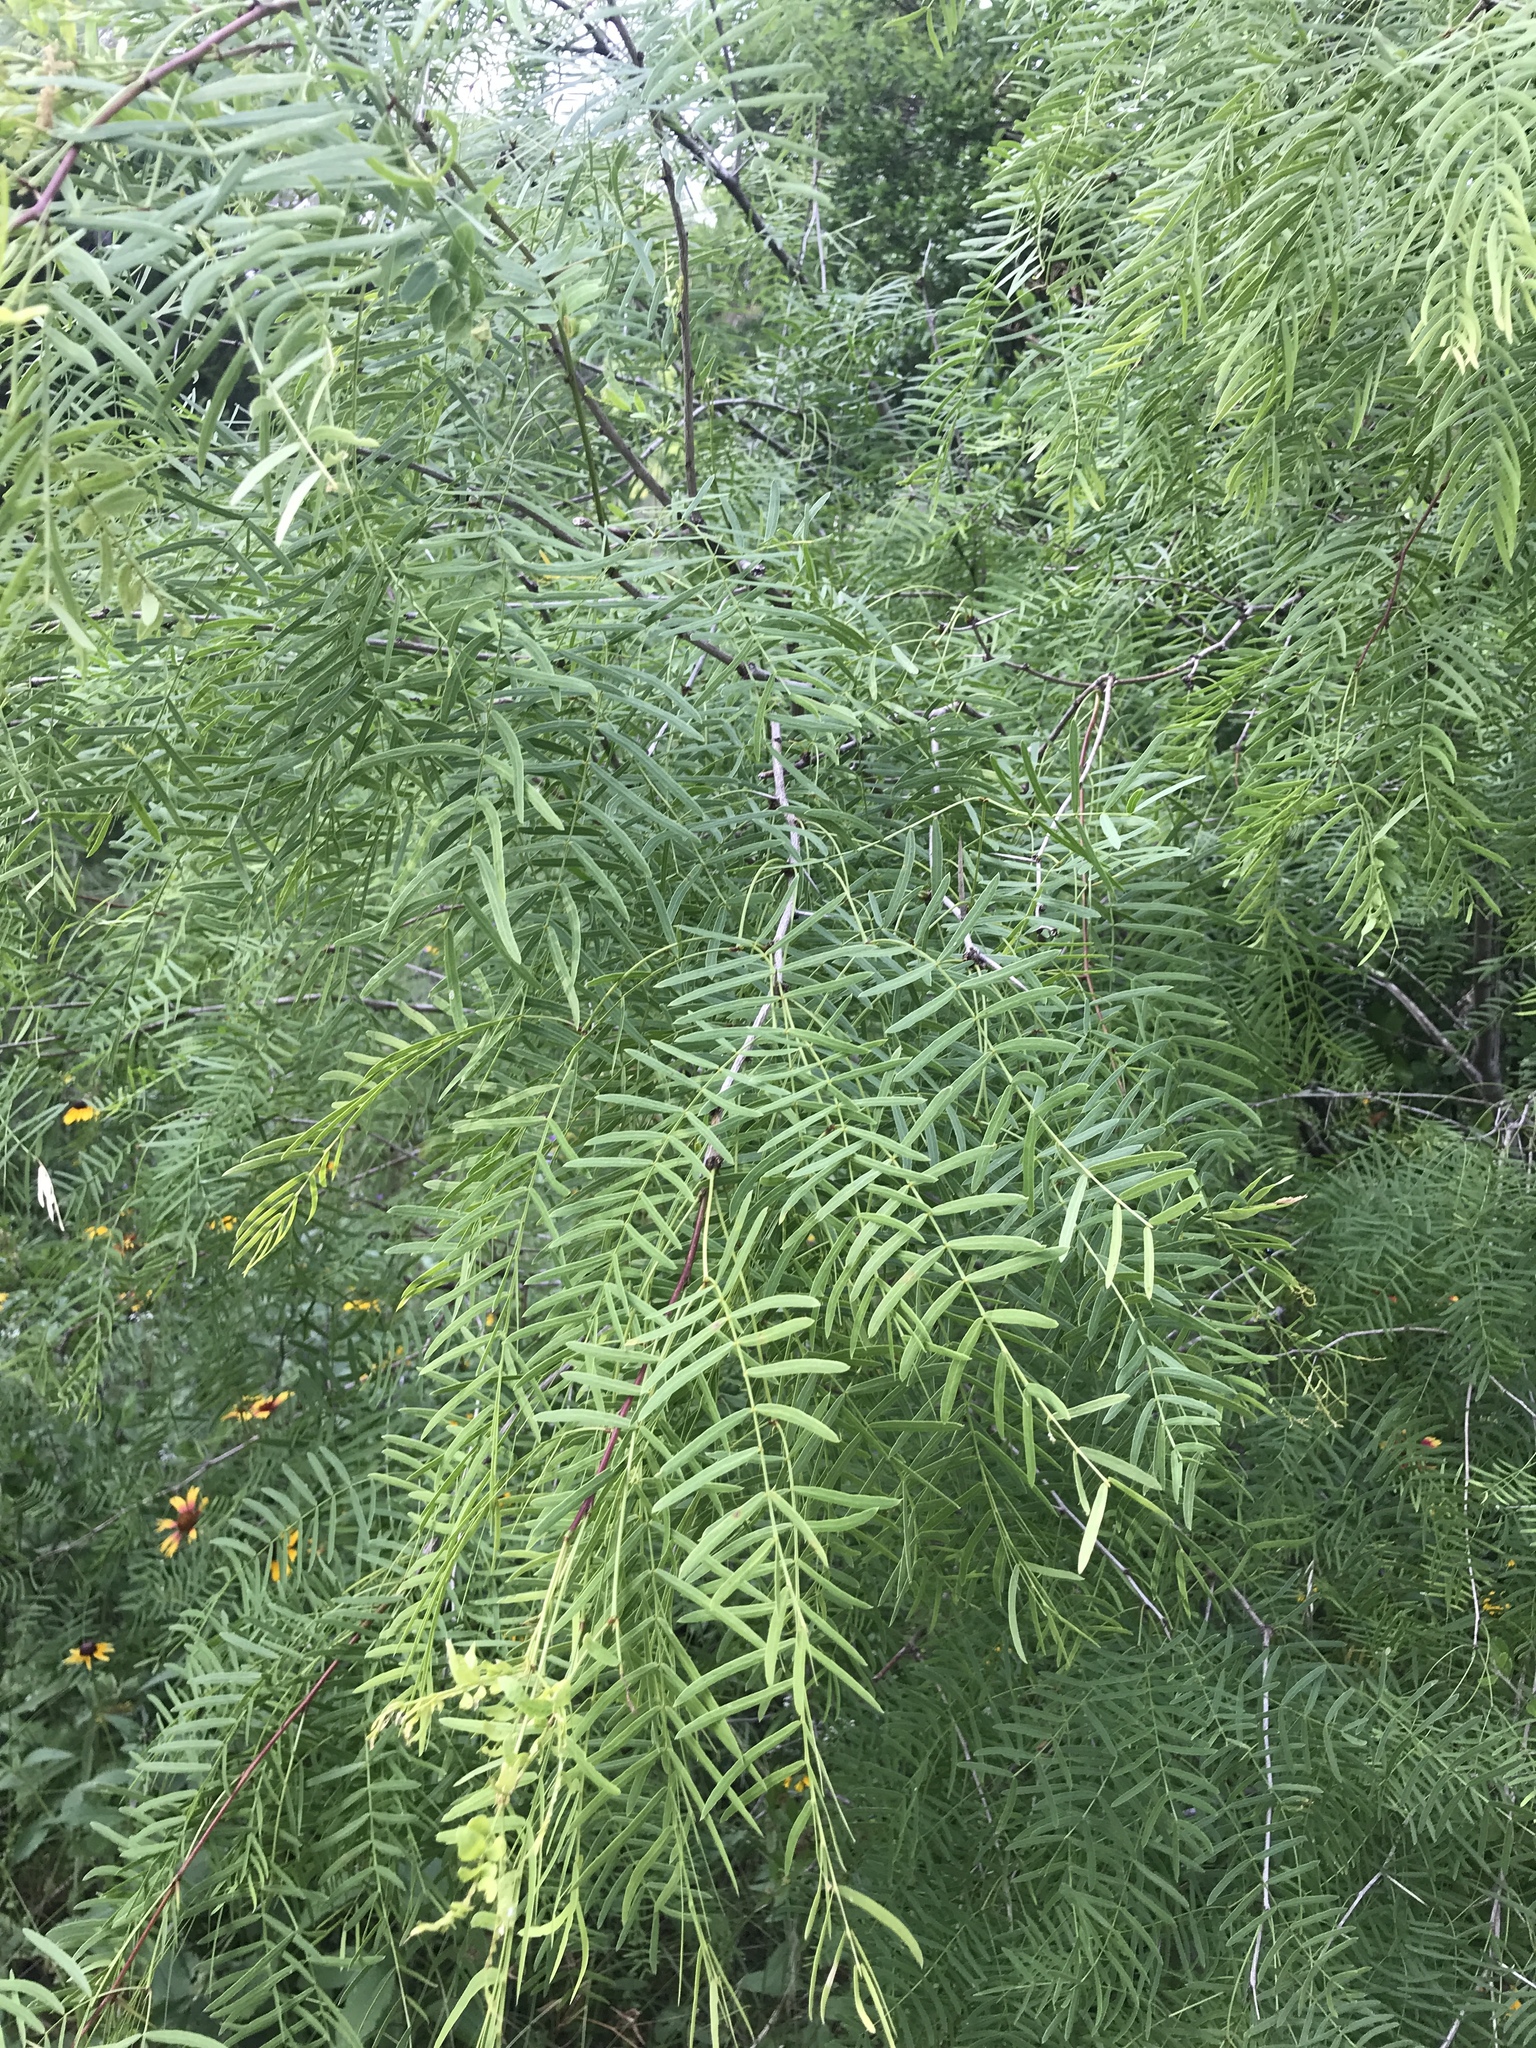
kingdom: Plantae
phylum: Tracheophyta
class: Magnoliopsida
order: Fabales
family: Fabaceae
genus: Prosopis
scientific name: Prosopis glandulosa
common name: Honey mesquite
